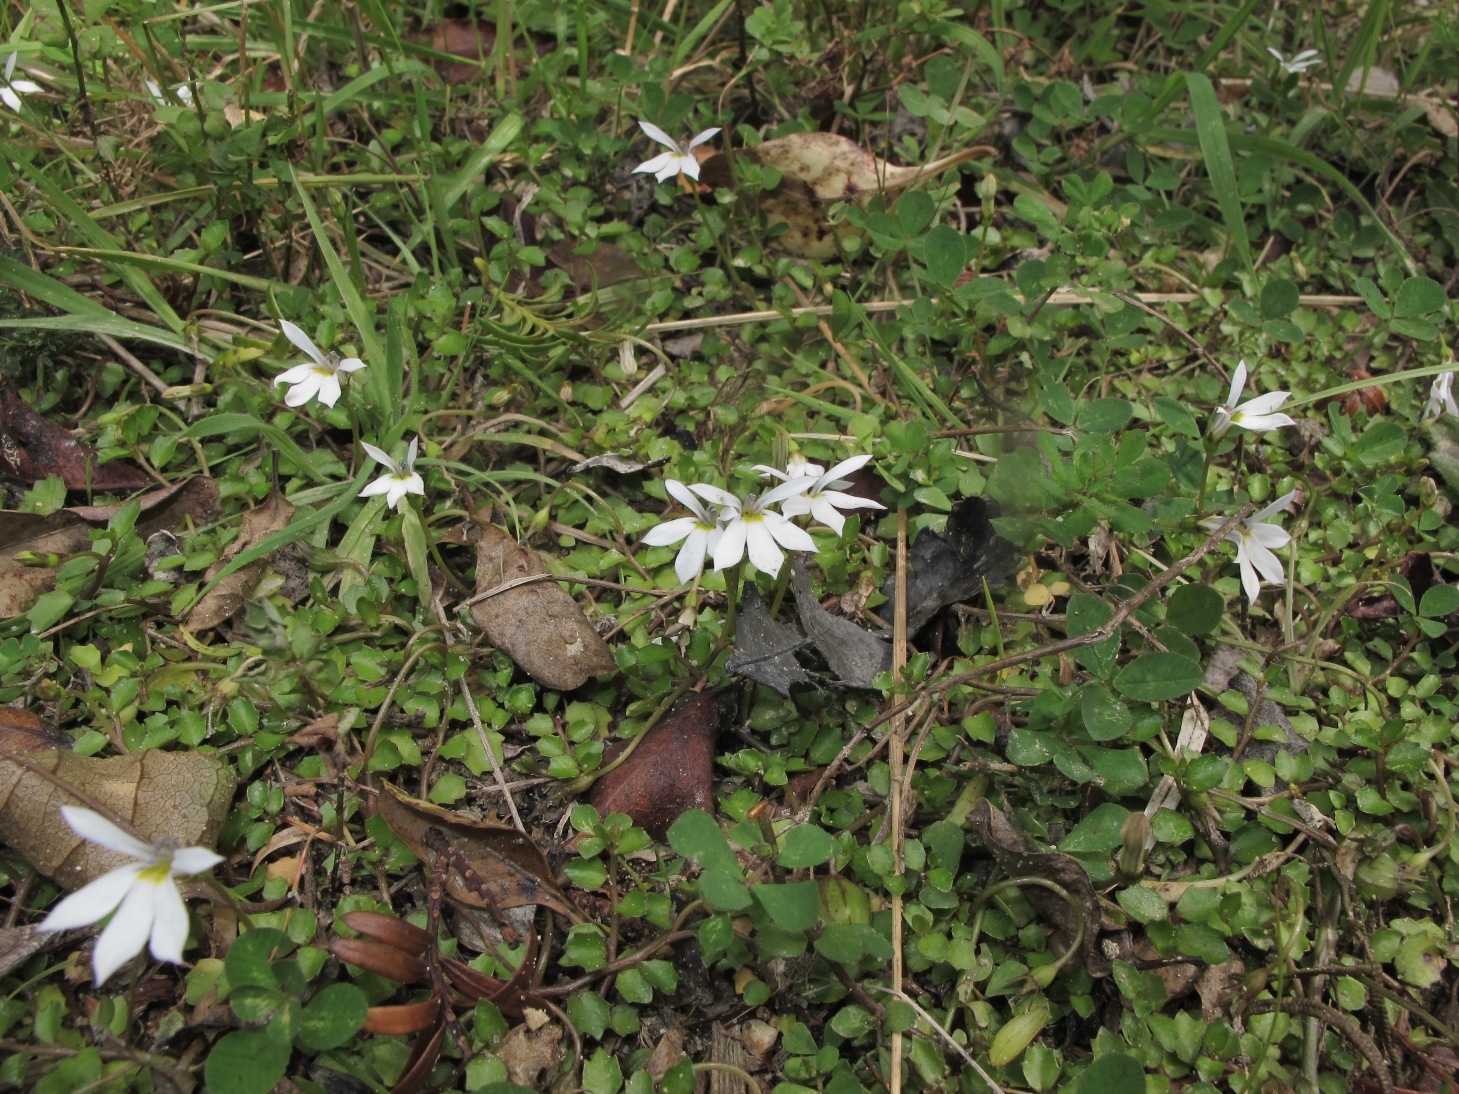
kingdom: Plantae
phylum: Tracheophyta
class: Magnoliopsida
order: Asterales
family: Campanulaceae
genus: Lobelia
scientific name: Lobelia angulata
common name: Lawn lobelia
